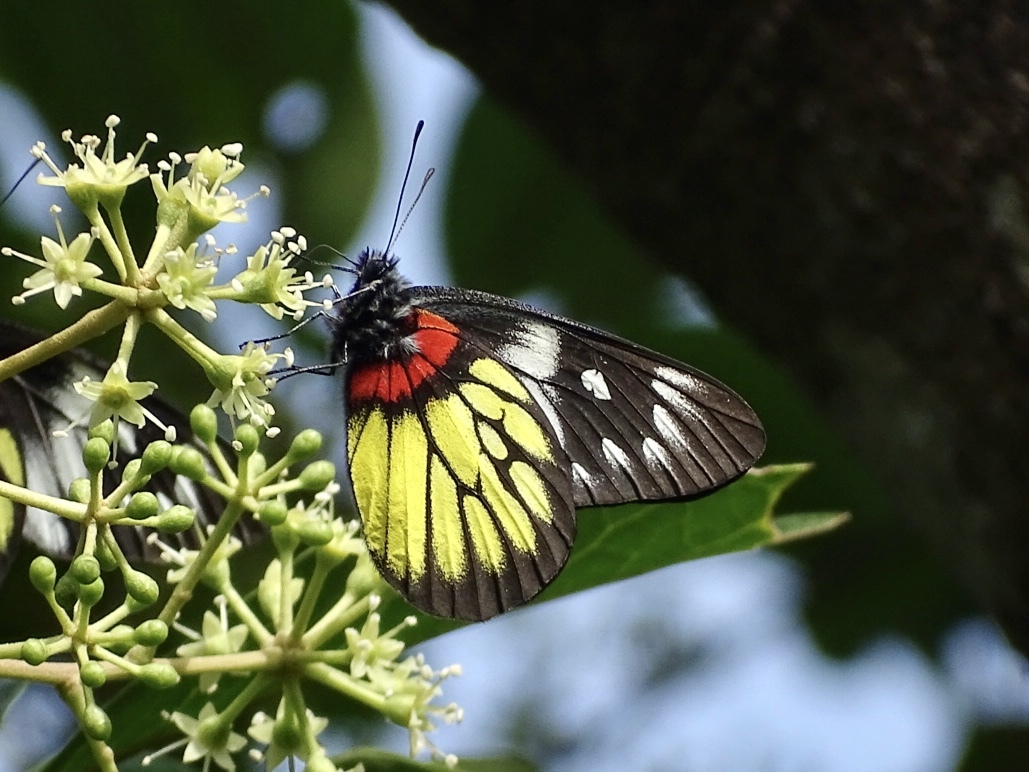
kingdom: Animalia
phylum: Arthropoda
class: Insecta
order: Lepidoptera
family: Pieridae
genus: Delias
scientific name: Delias pasithoe
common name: Red-base jezebel
